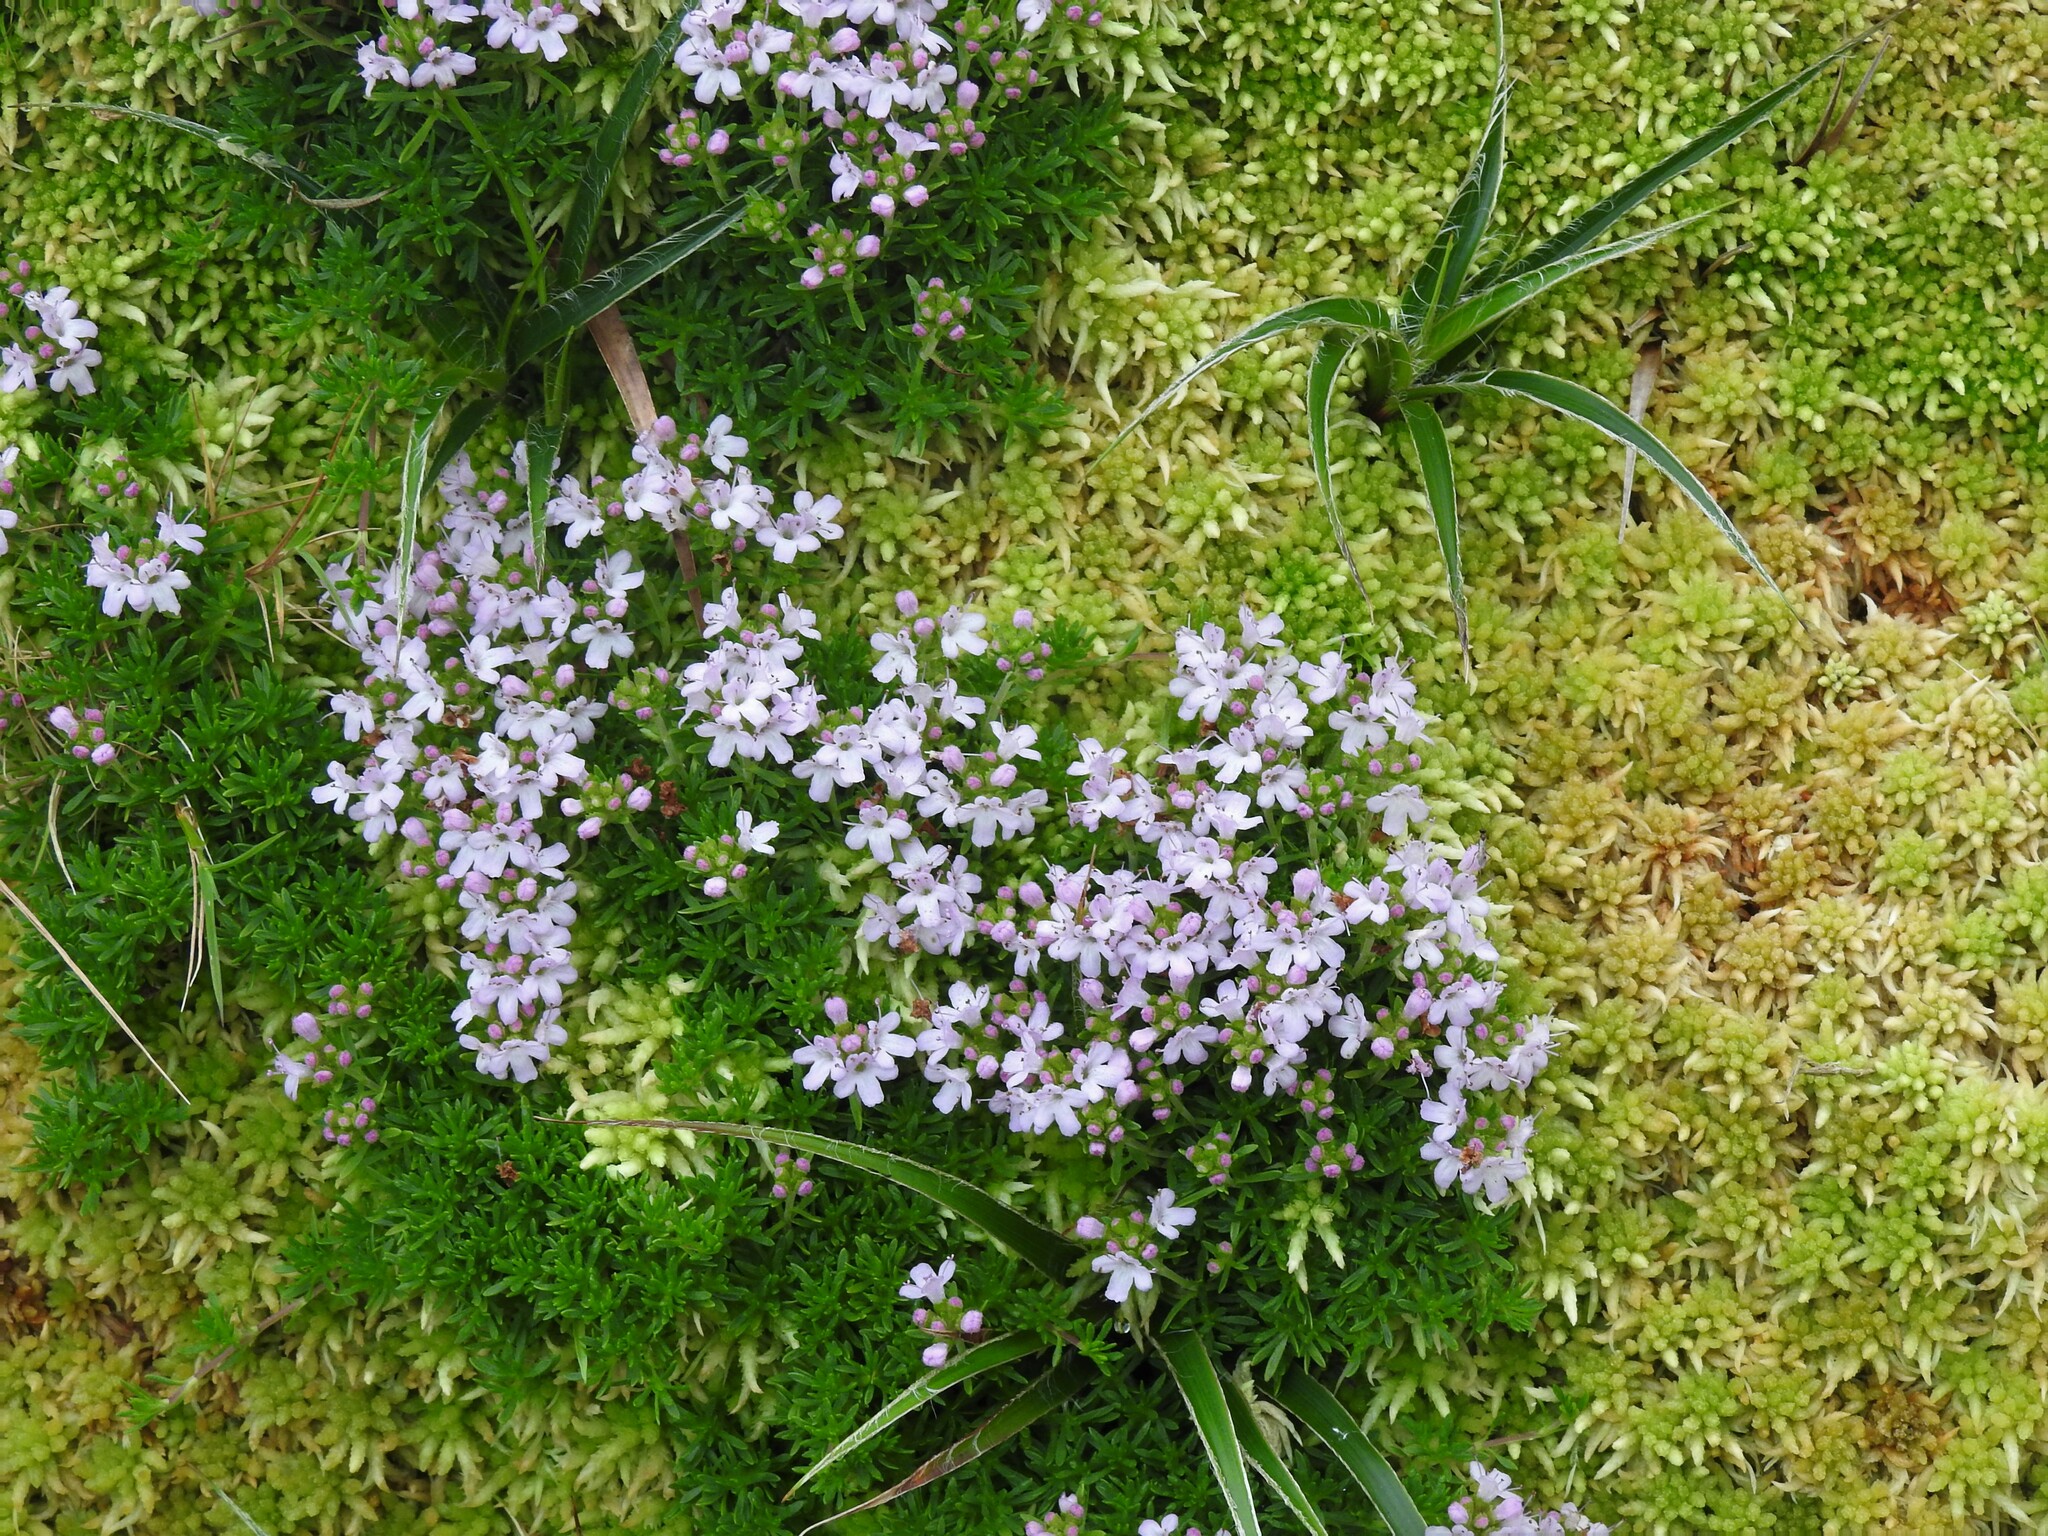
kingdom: Plantae
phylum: Tracheophyta
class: Magnoliopsida
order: Lamiales
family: Lamiaceae
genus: Thymus
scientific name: Thymus caespititius
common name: Azores thyme
